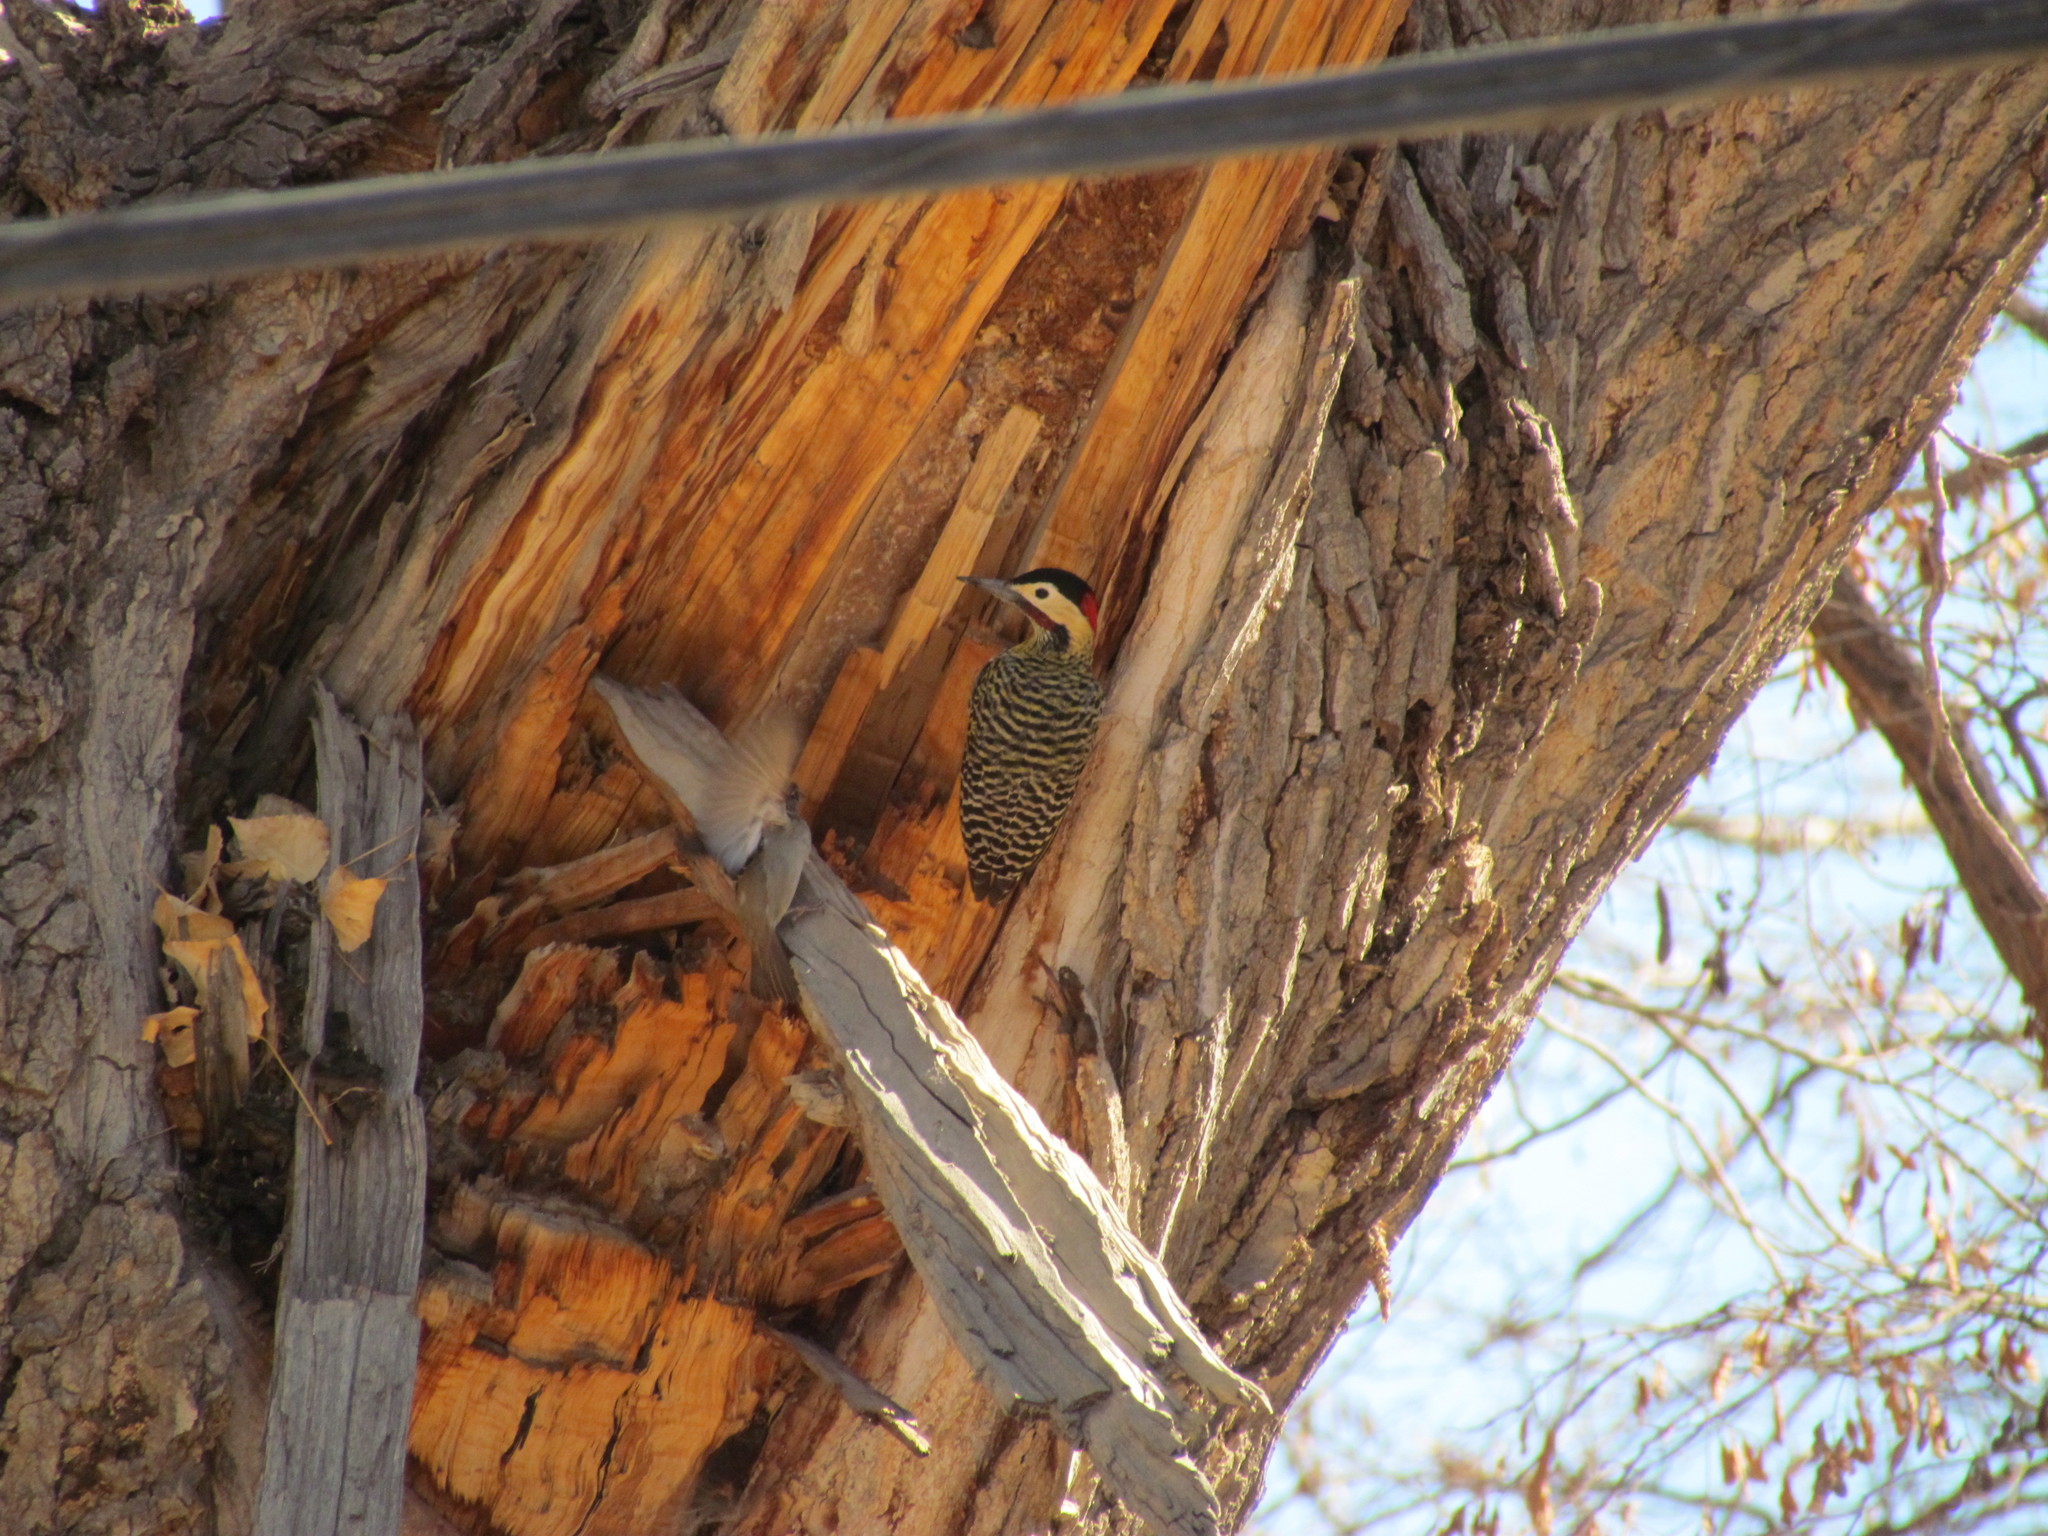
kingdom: Animalia
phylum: Chordata
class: Aves
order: Piciformes
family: Picidae
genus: Colaptes
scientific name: Colaptes melanochloros
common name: Green-barred woodpecker
